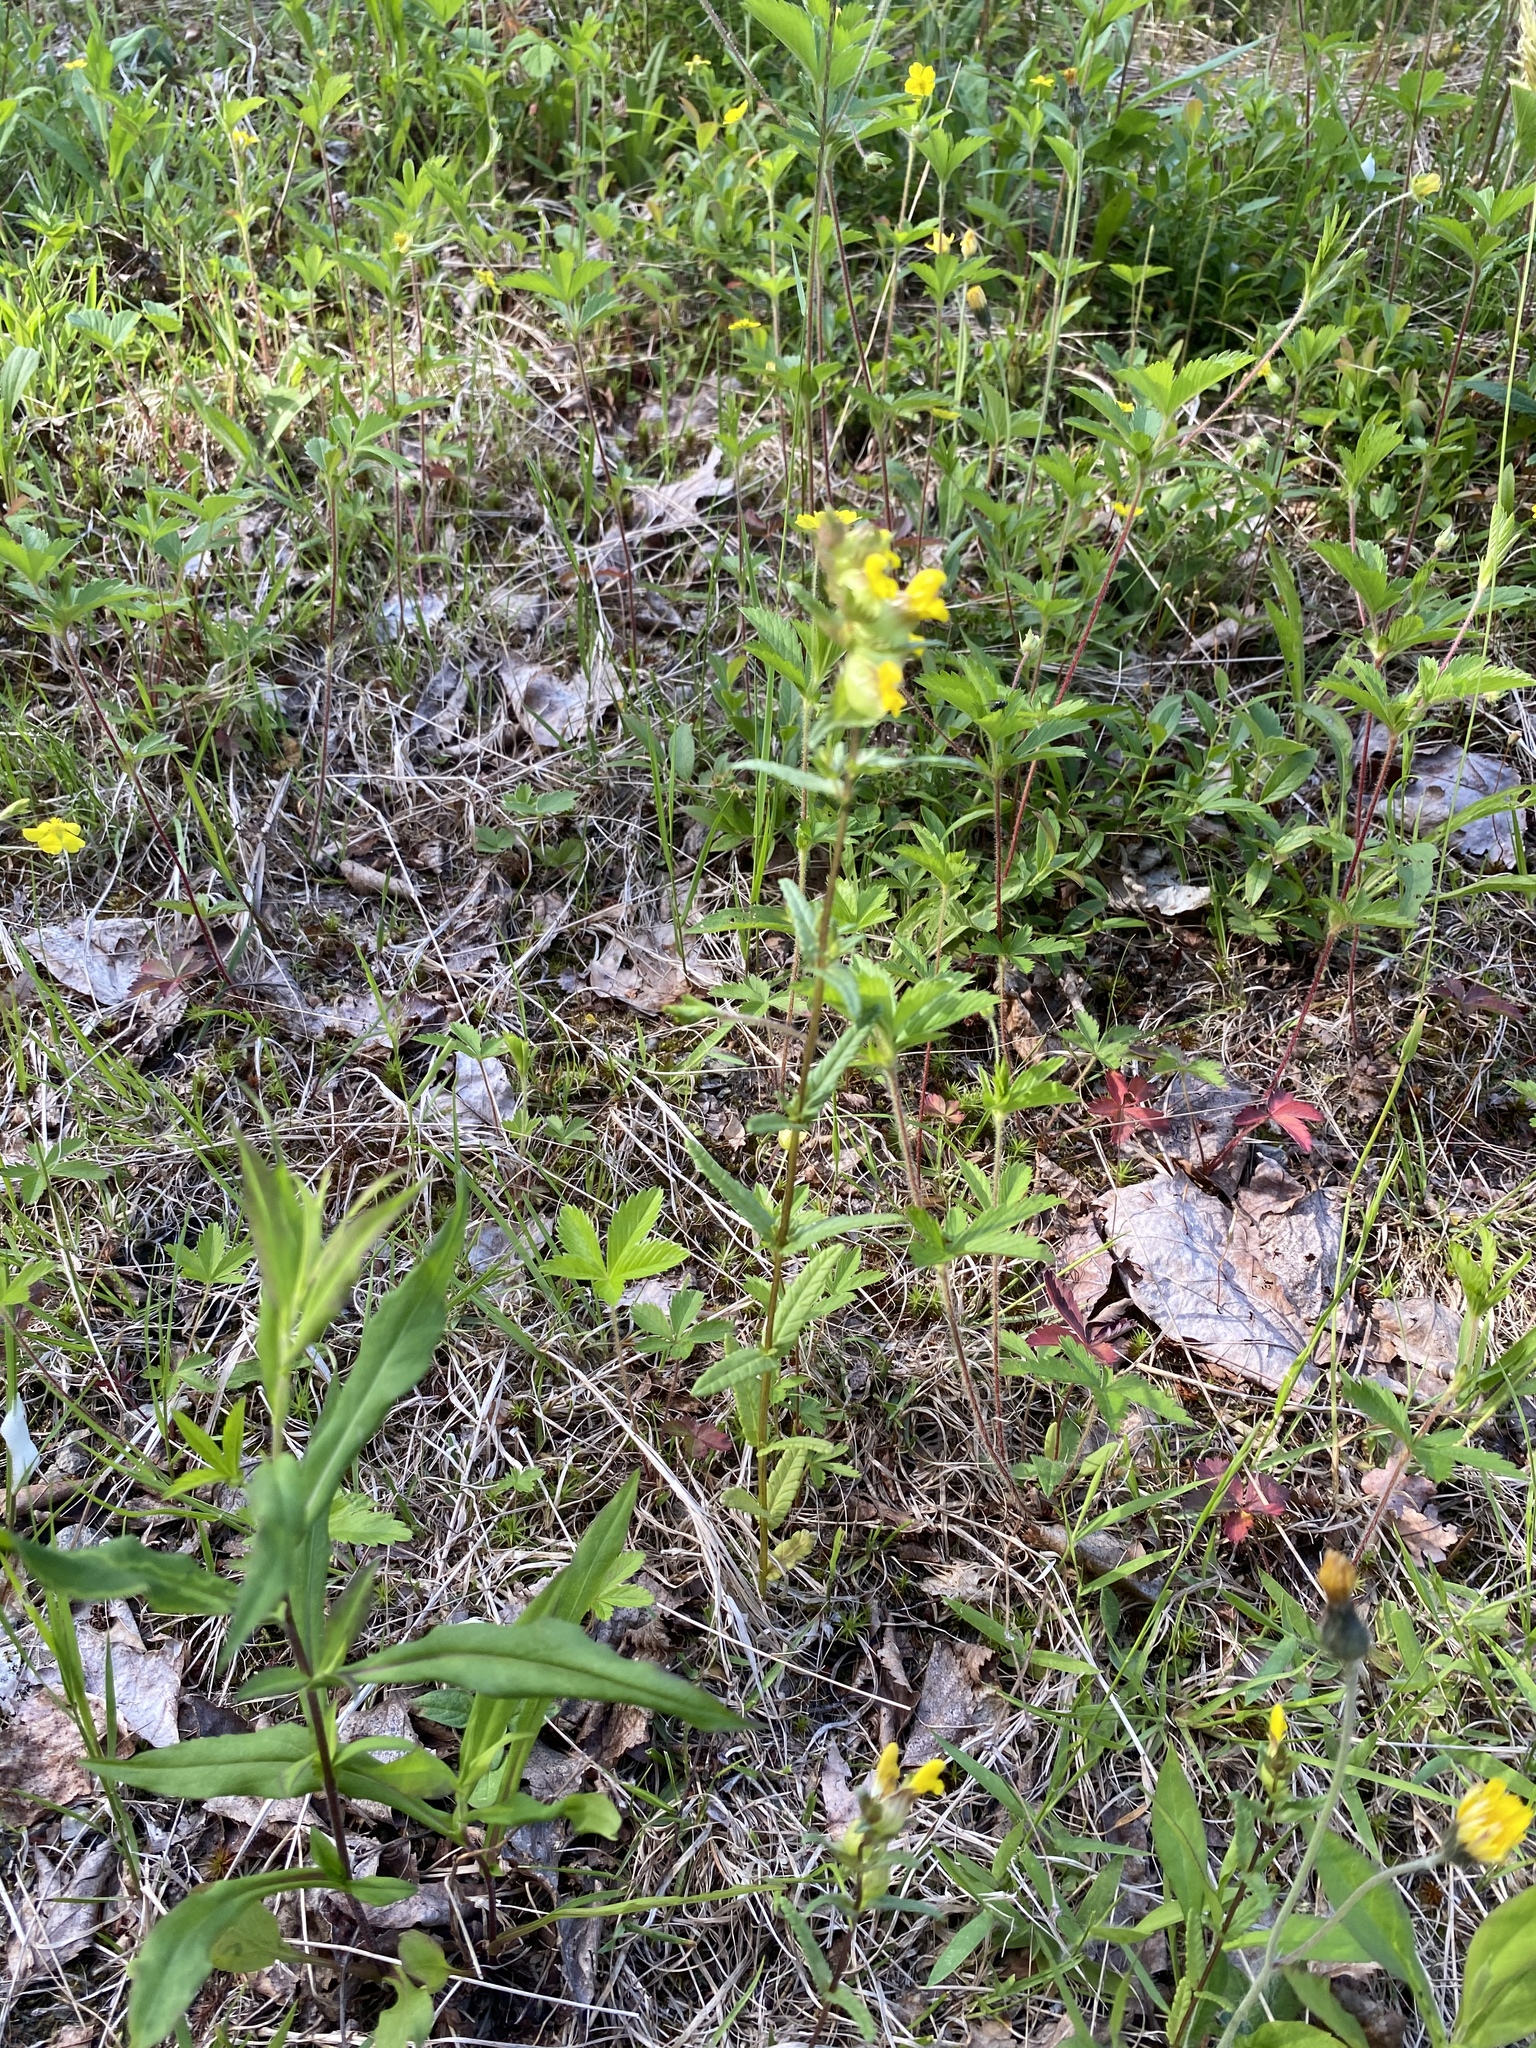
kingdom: Plantae
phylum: Tracheophyta
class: Magnoliopsida
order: Lamiales
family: Orobanchaceae
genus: Rhinanthus
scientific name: Rhinanthus minor
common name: Yellow-rattle
